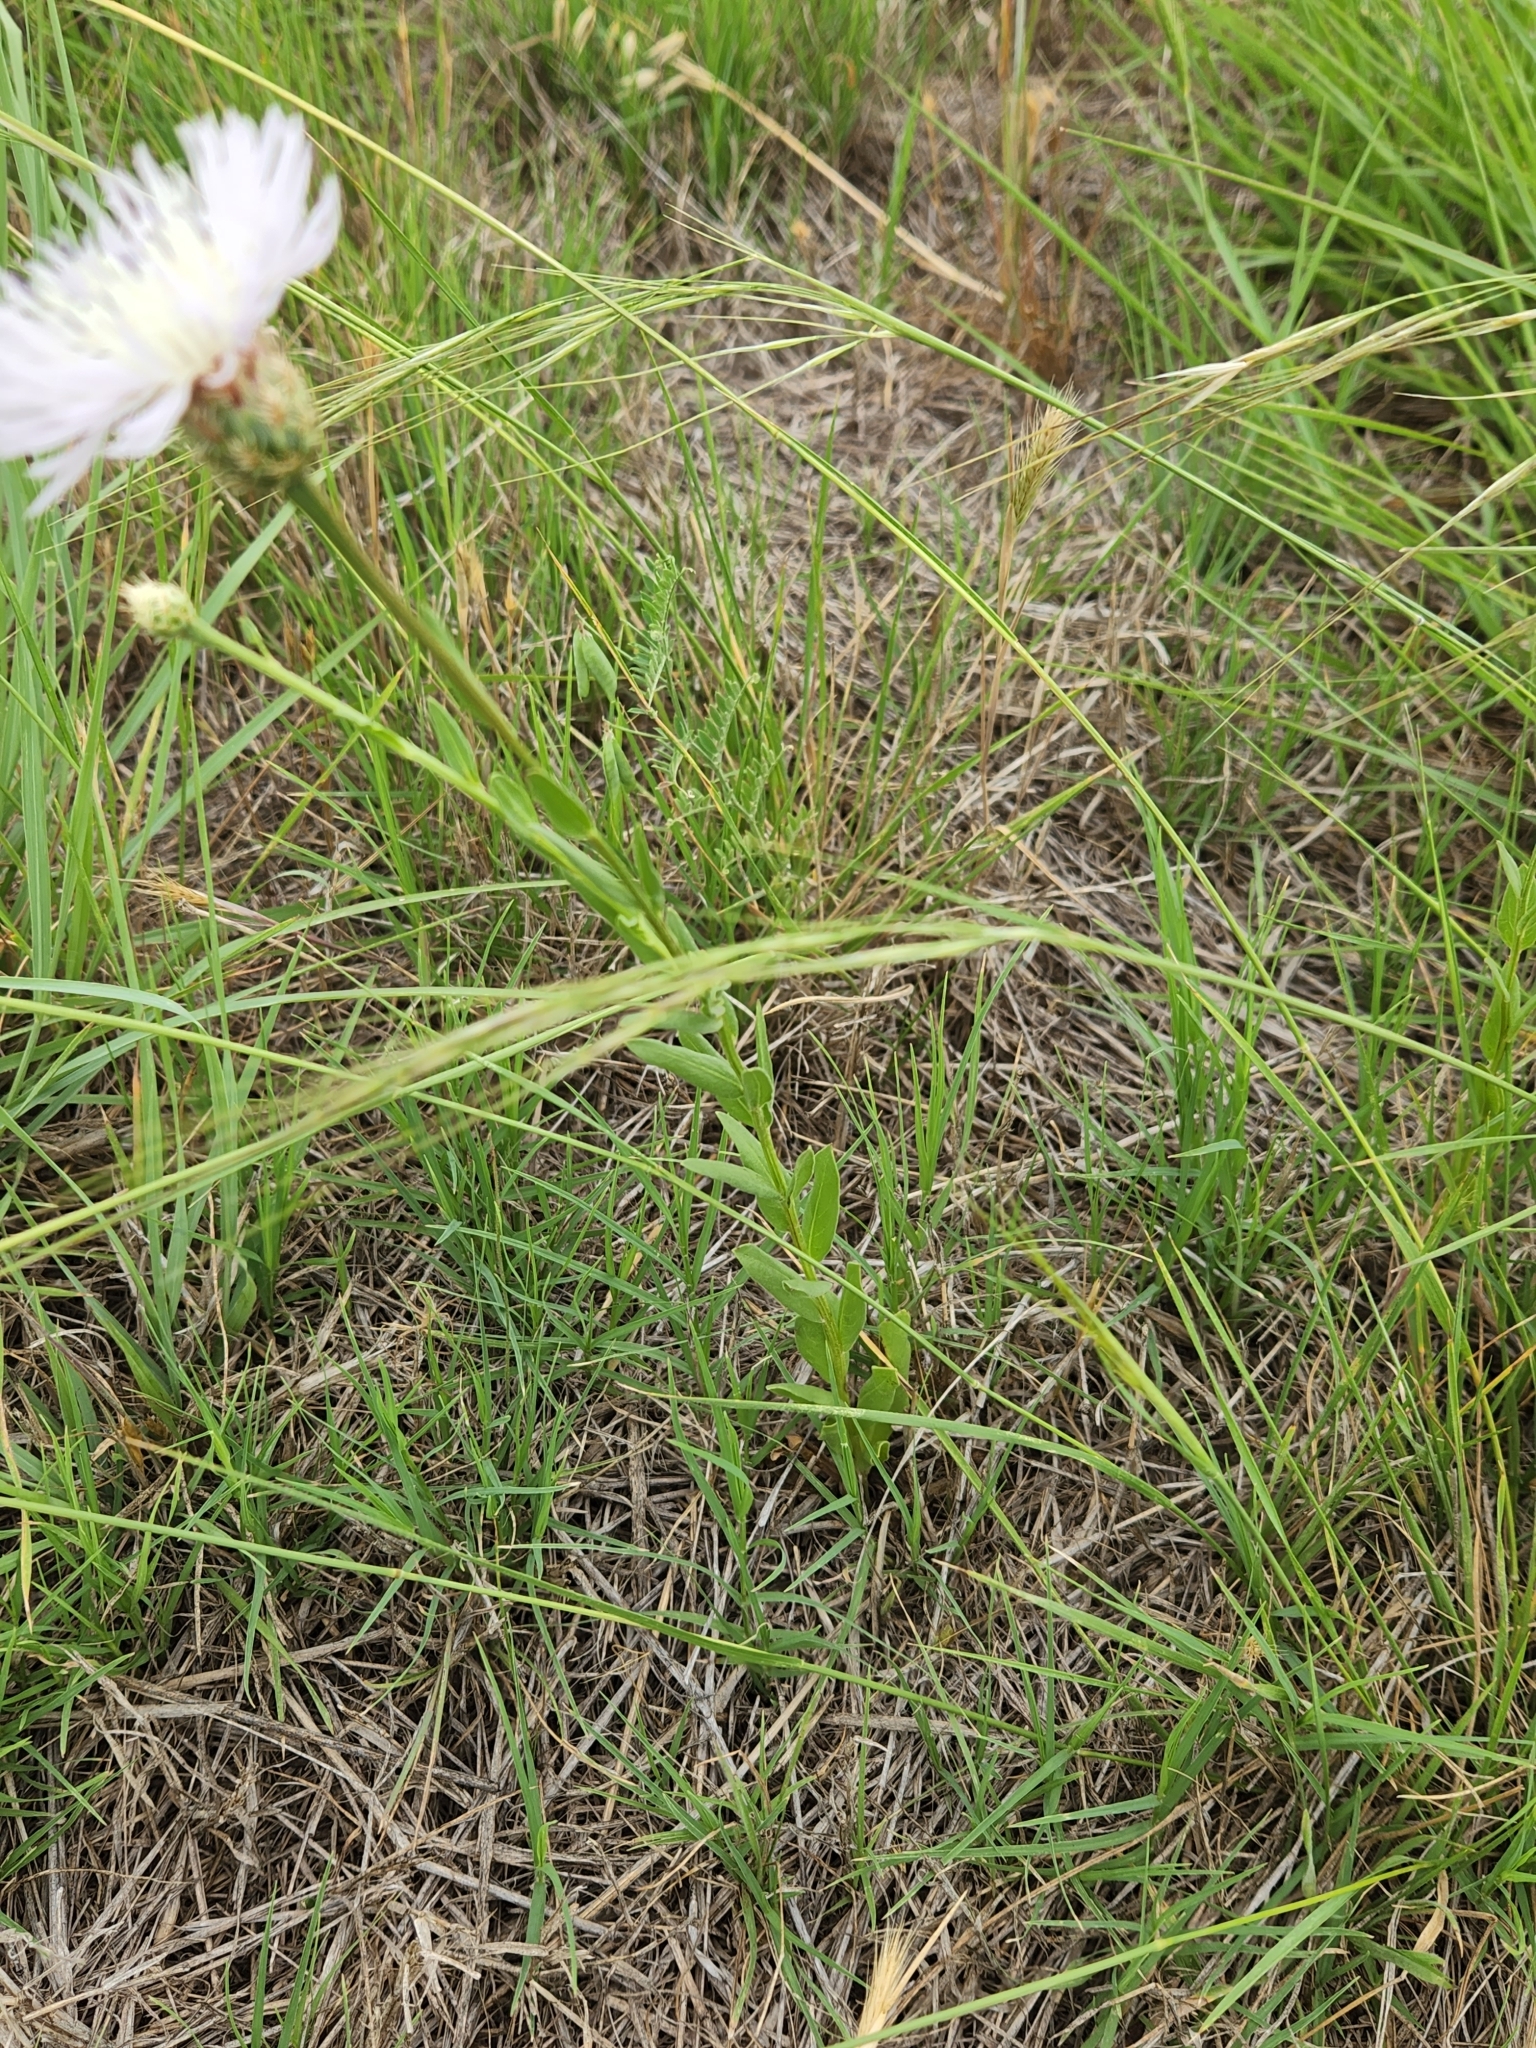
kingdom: Plantae
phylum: Tracheophyta
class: Magnoliopsida
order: Asterales
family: Asteraceae
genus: Plectocephalus
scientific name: Plectocephalus americanus
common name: American basket-flower
